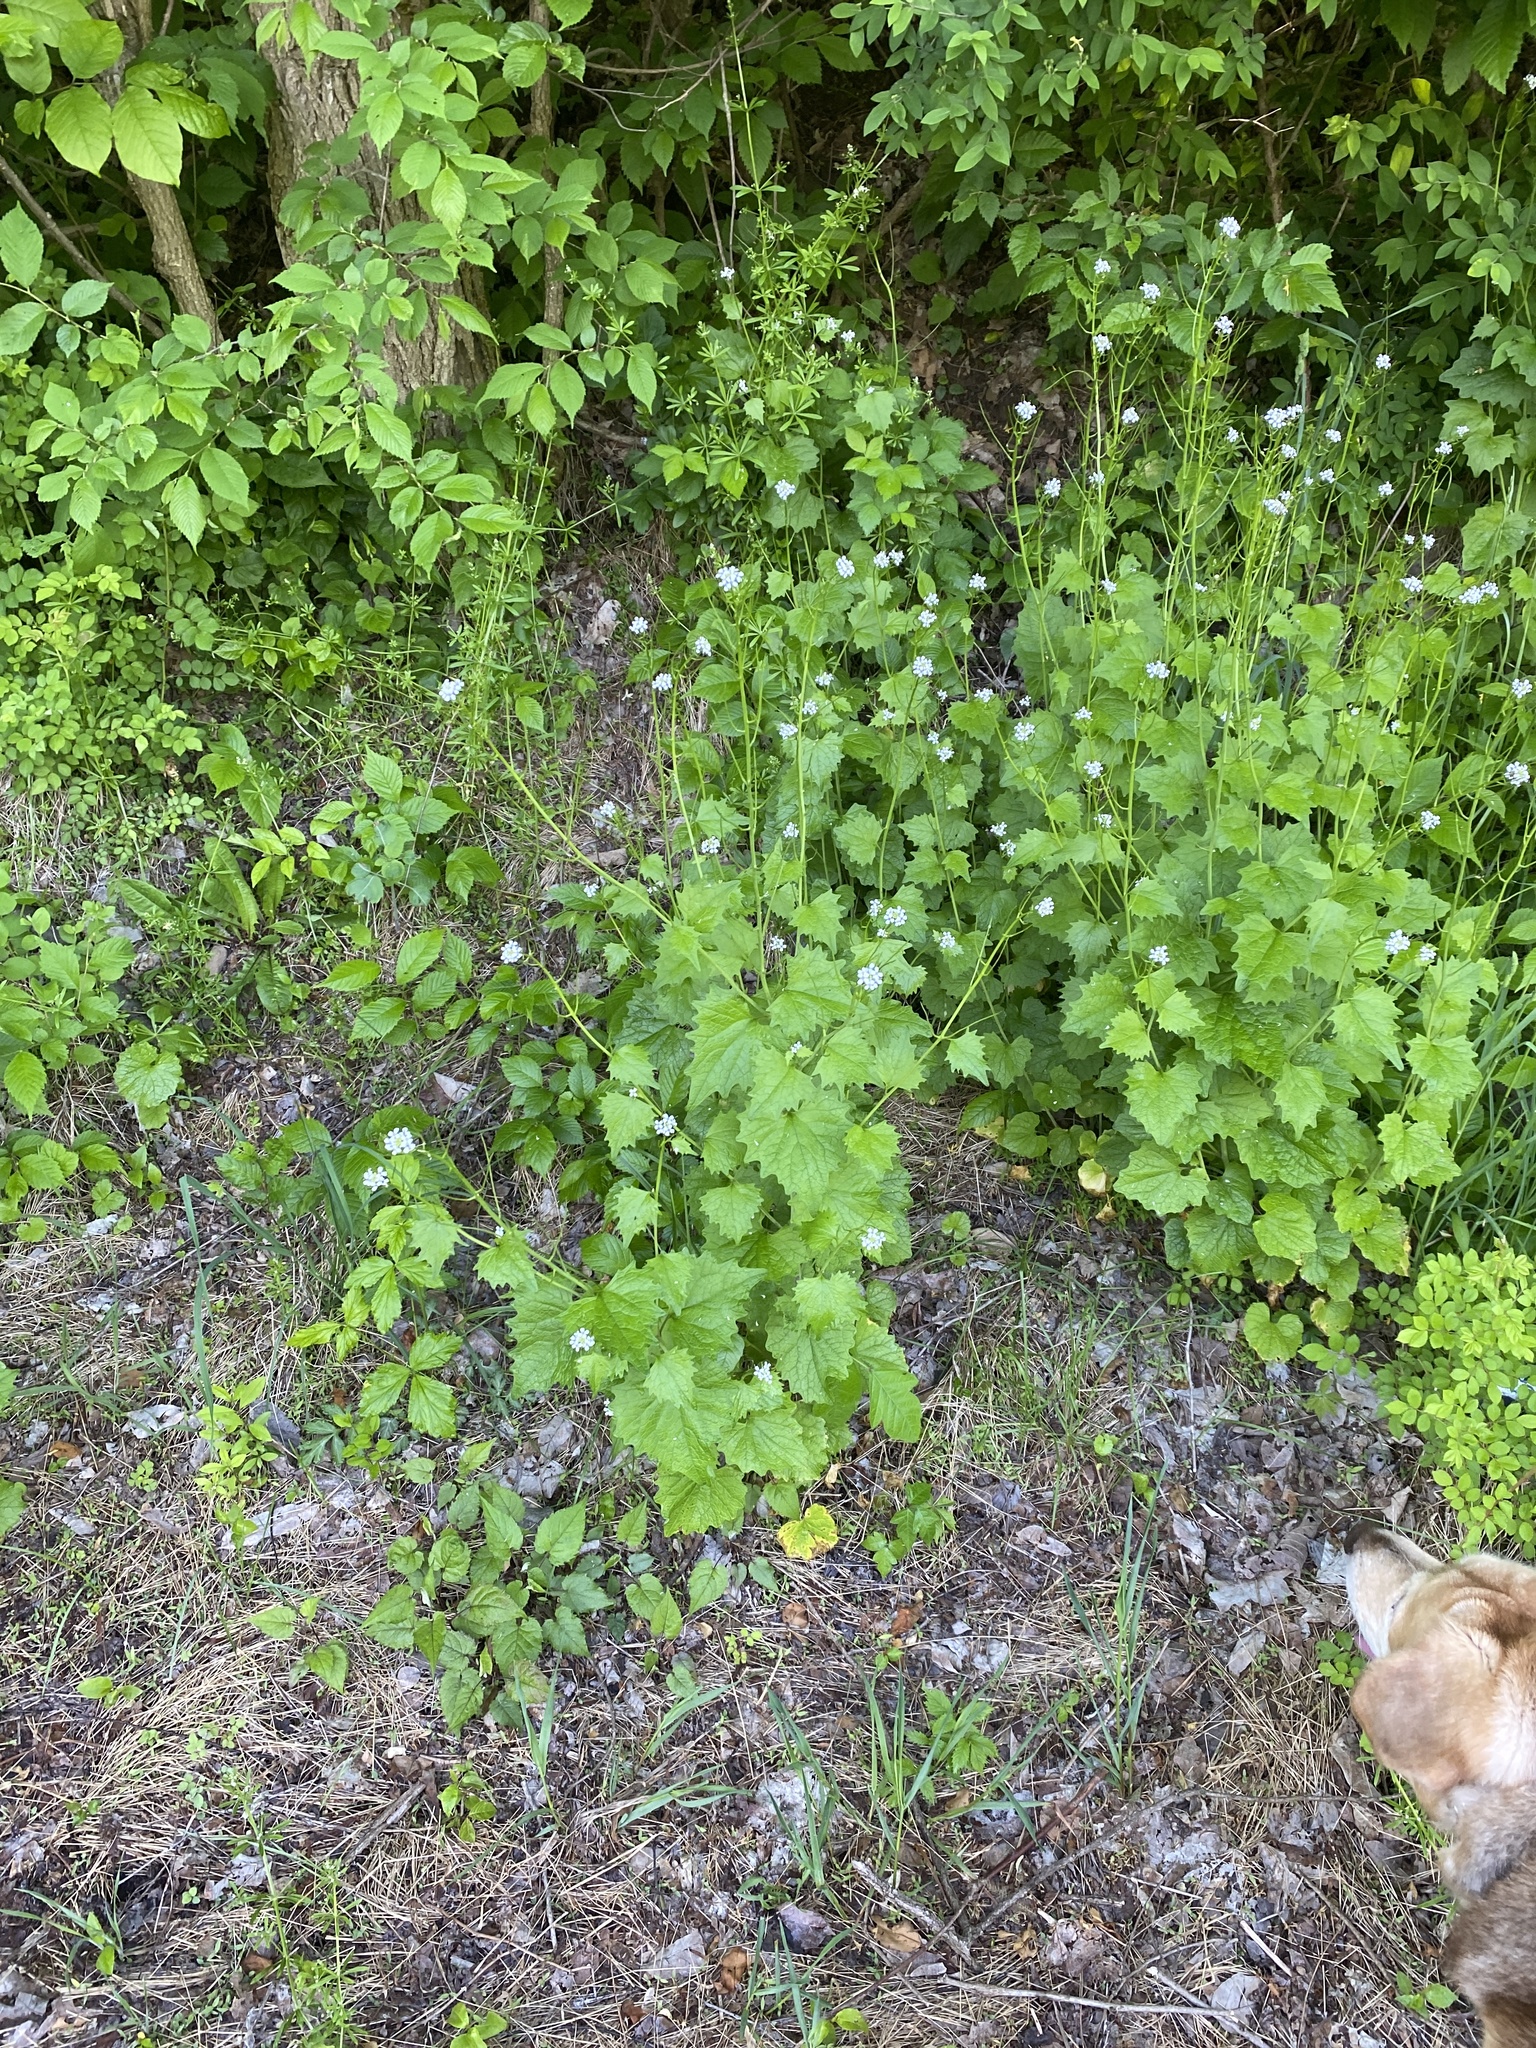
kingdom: Plantae
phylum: Tracheophyta
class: Magnoliopsida
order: Brassicales
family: Brassicaceae
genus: Alliaria
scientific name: Alliaria petiolata
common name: Garlic mustard
